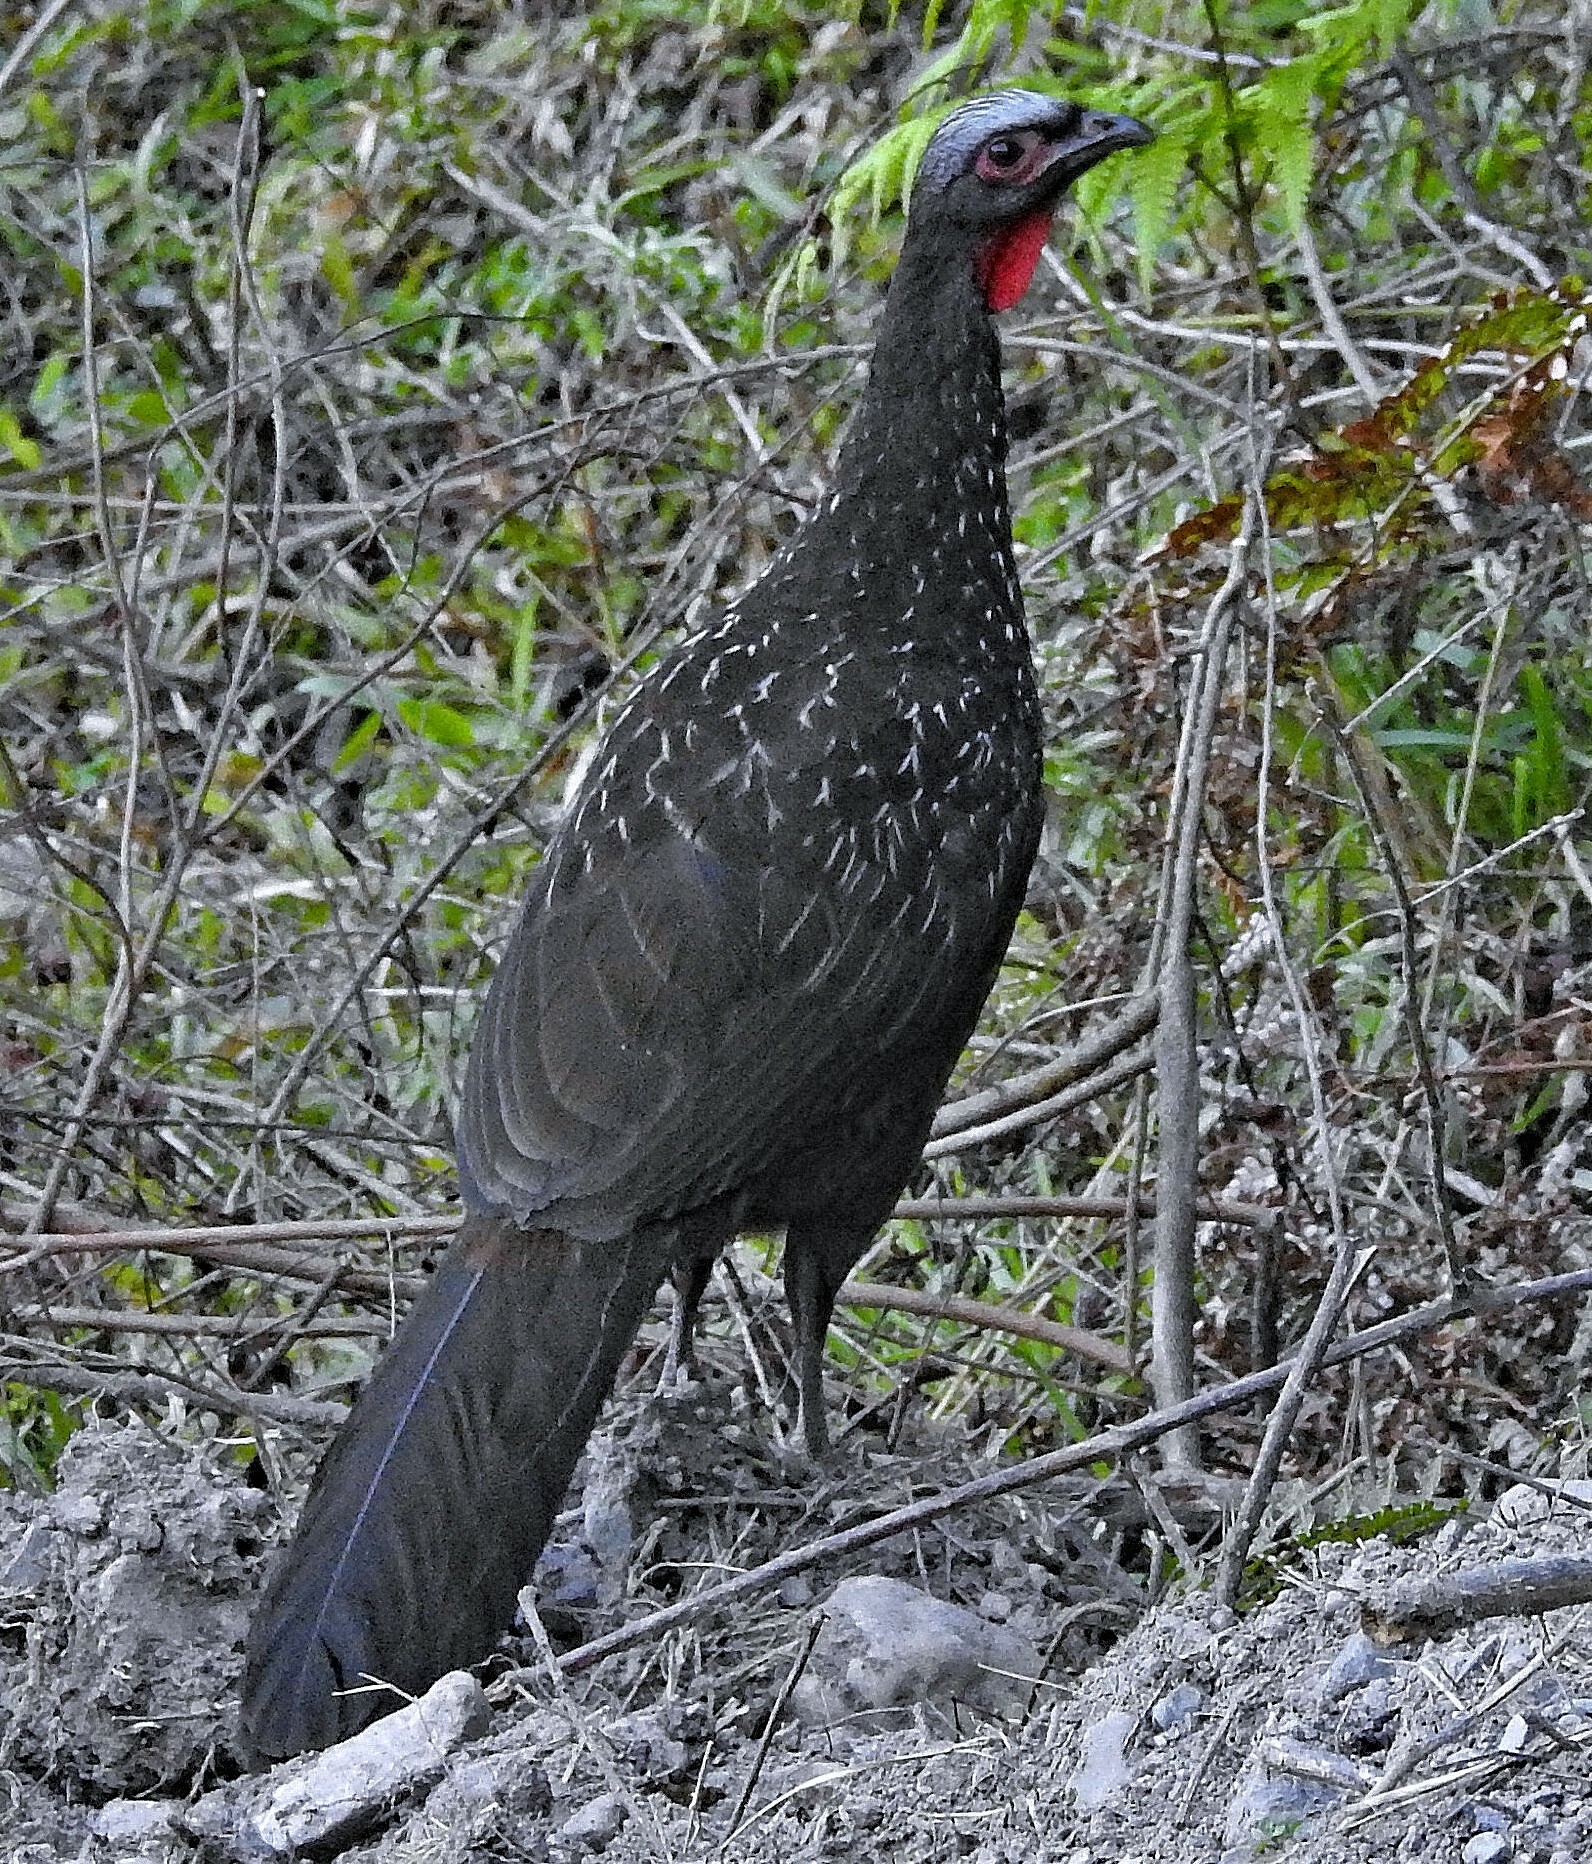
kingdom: Animalia
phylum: Chordata
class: Aves
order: Galliformes
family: Cracidae
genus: Penelope
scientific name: Penelope dabbenei
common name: Red-faced guan
